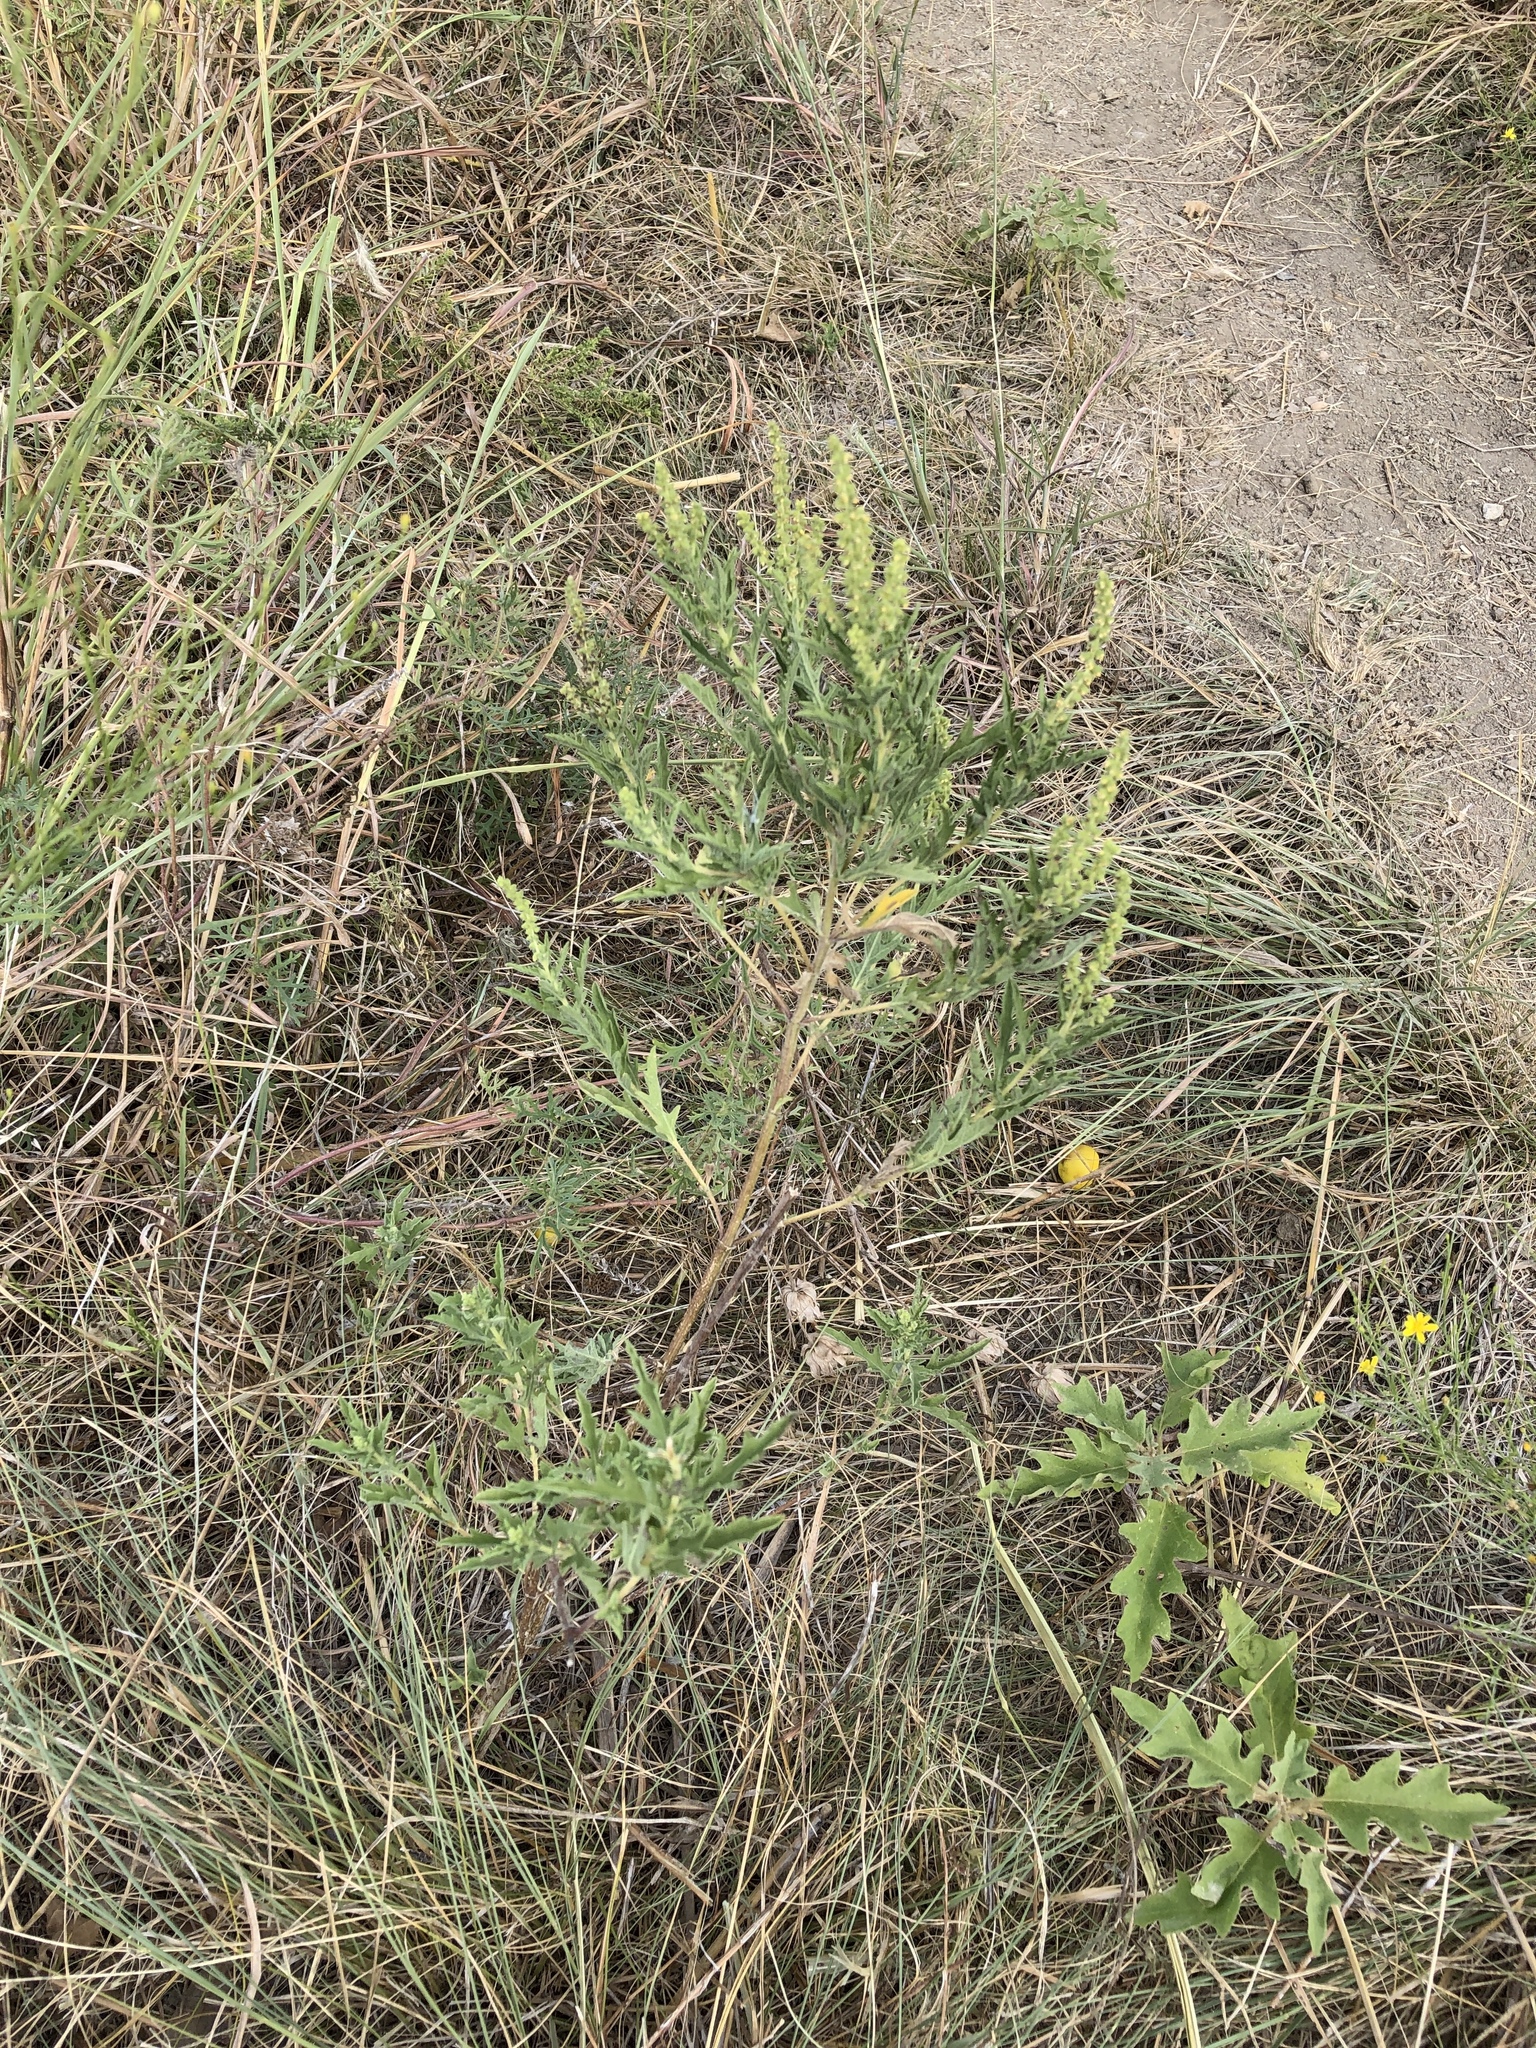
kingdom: Plantae
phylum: Tracheophyta
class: Magnoliopsida
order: Asterales
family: Asteraceae
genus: Ambrosia
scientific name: Ambrosia psilostachya
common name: Perennial ragweed
